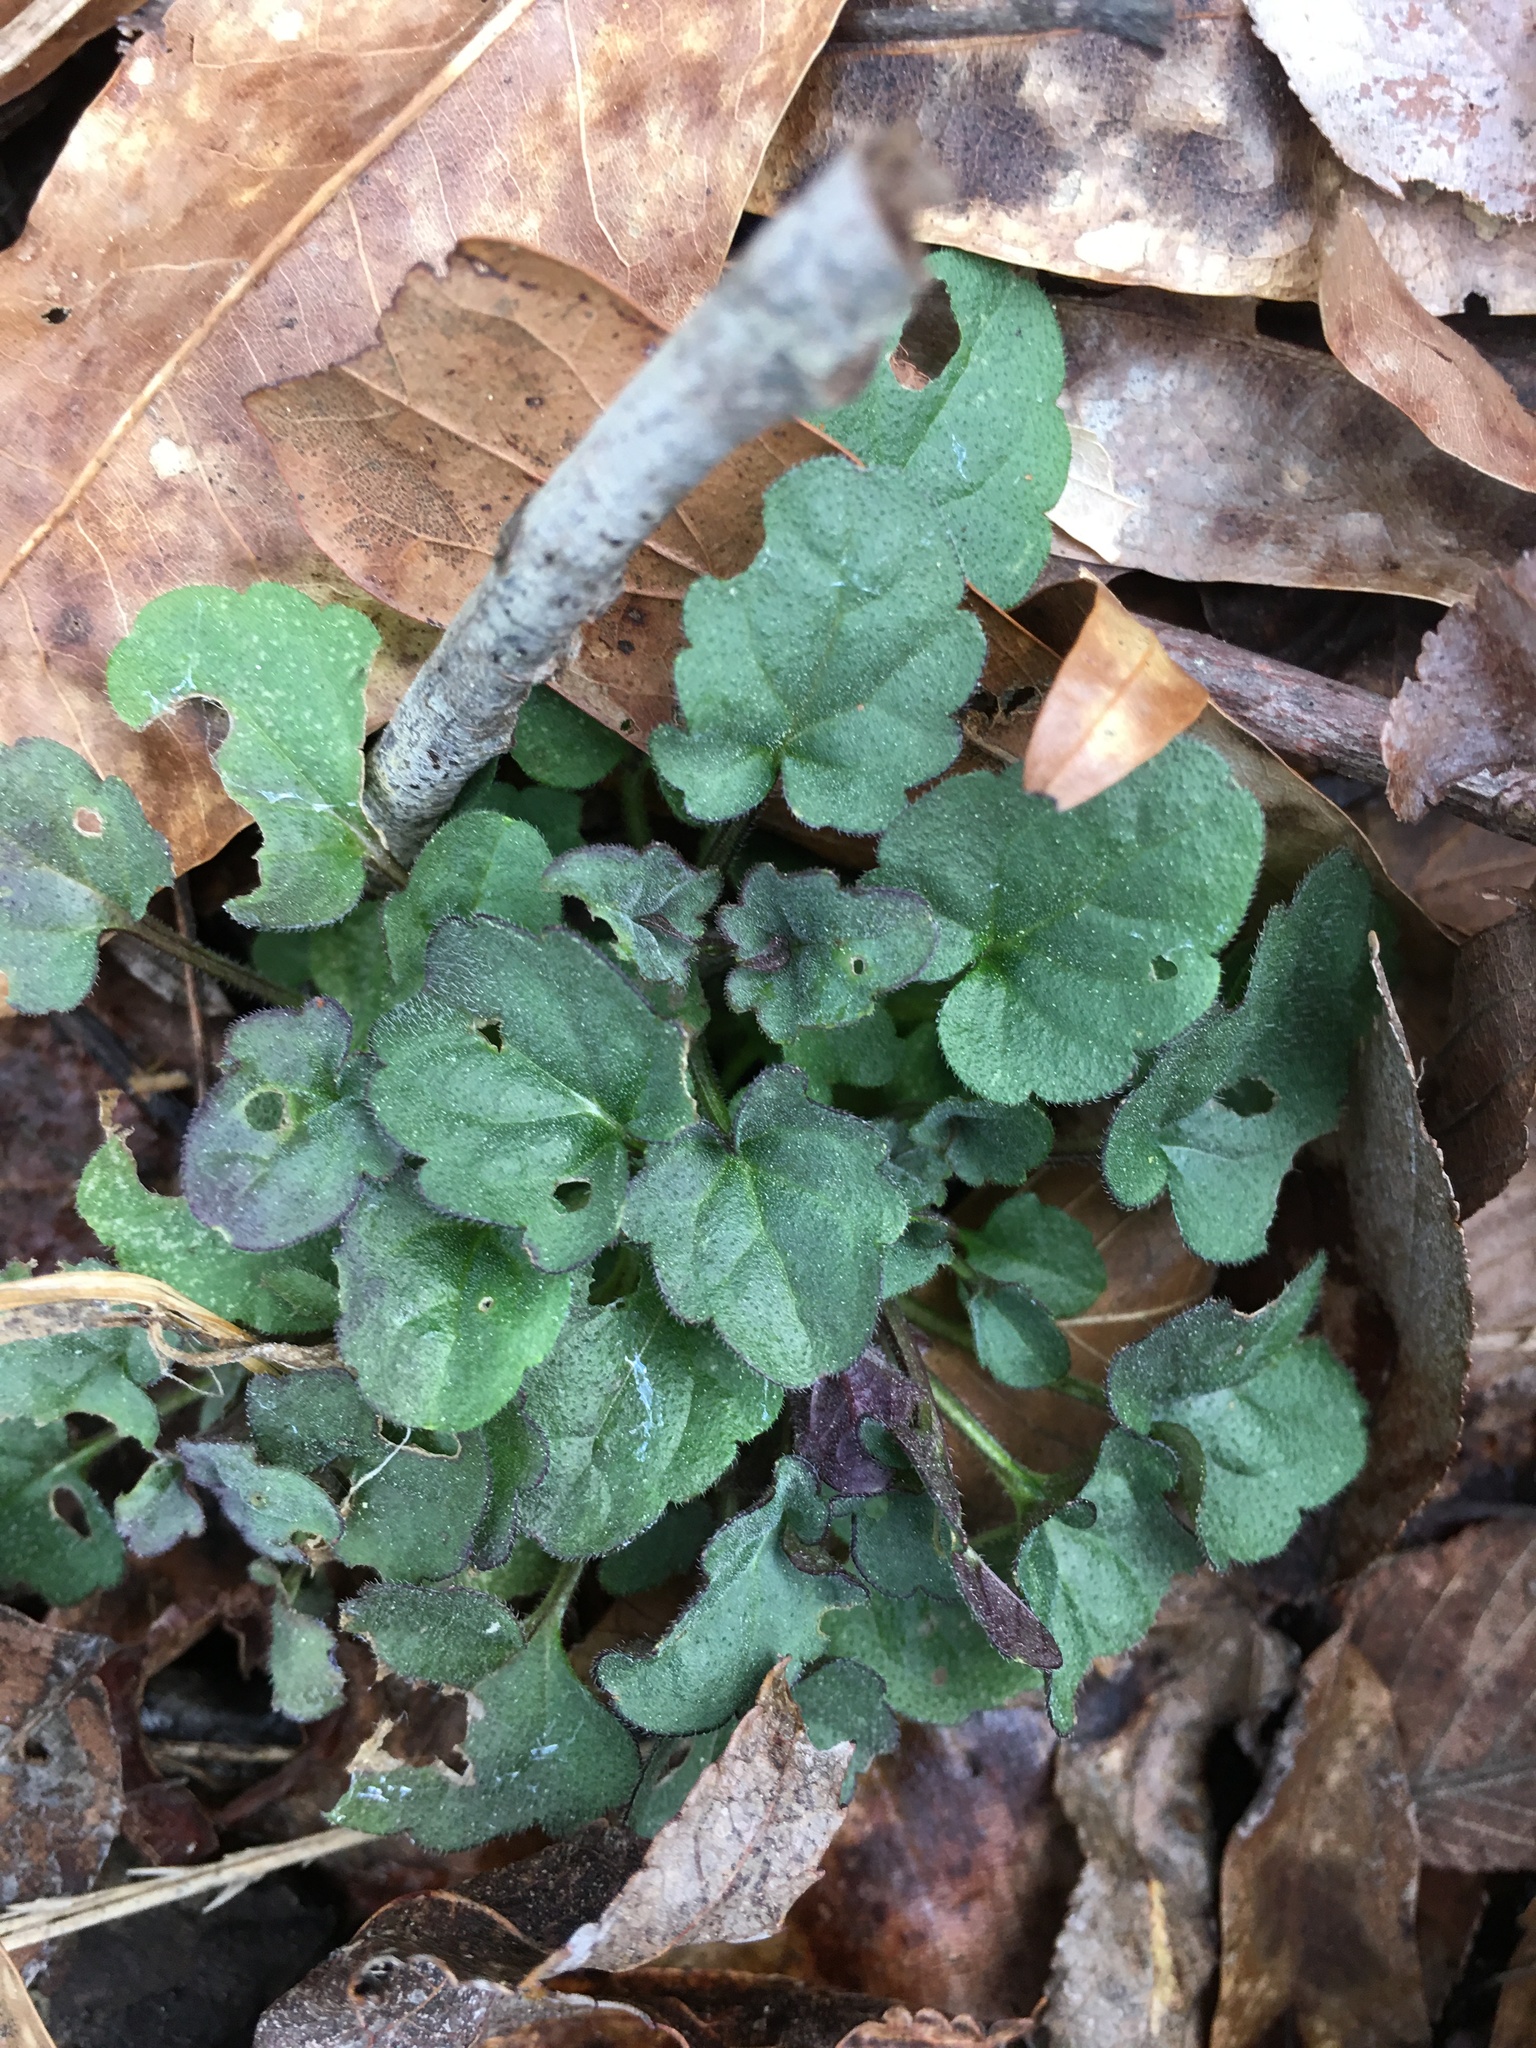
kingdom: Plantae
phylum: Tracheophyta
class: Magnoliopsida
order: Lamiales
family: Lamiaceae
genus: Scutellaria
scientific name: Scutellaria integrifolia
